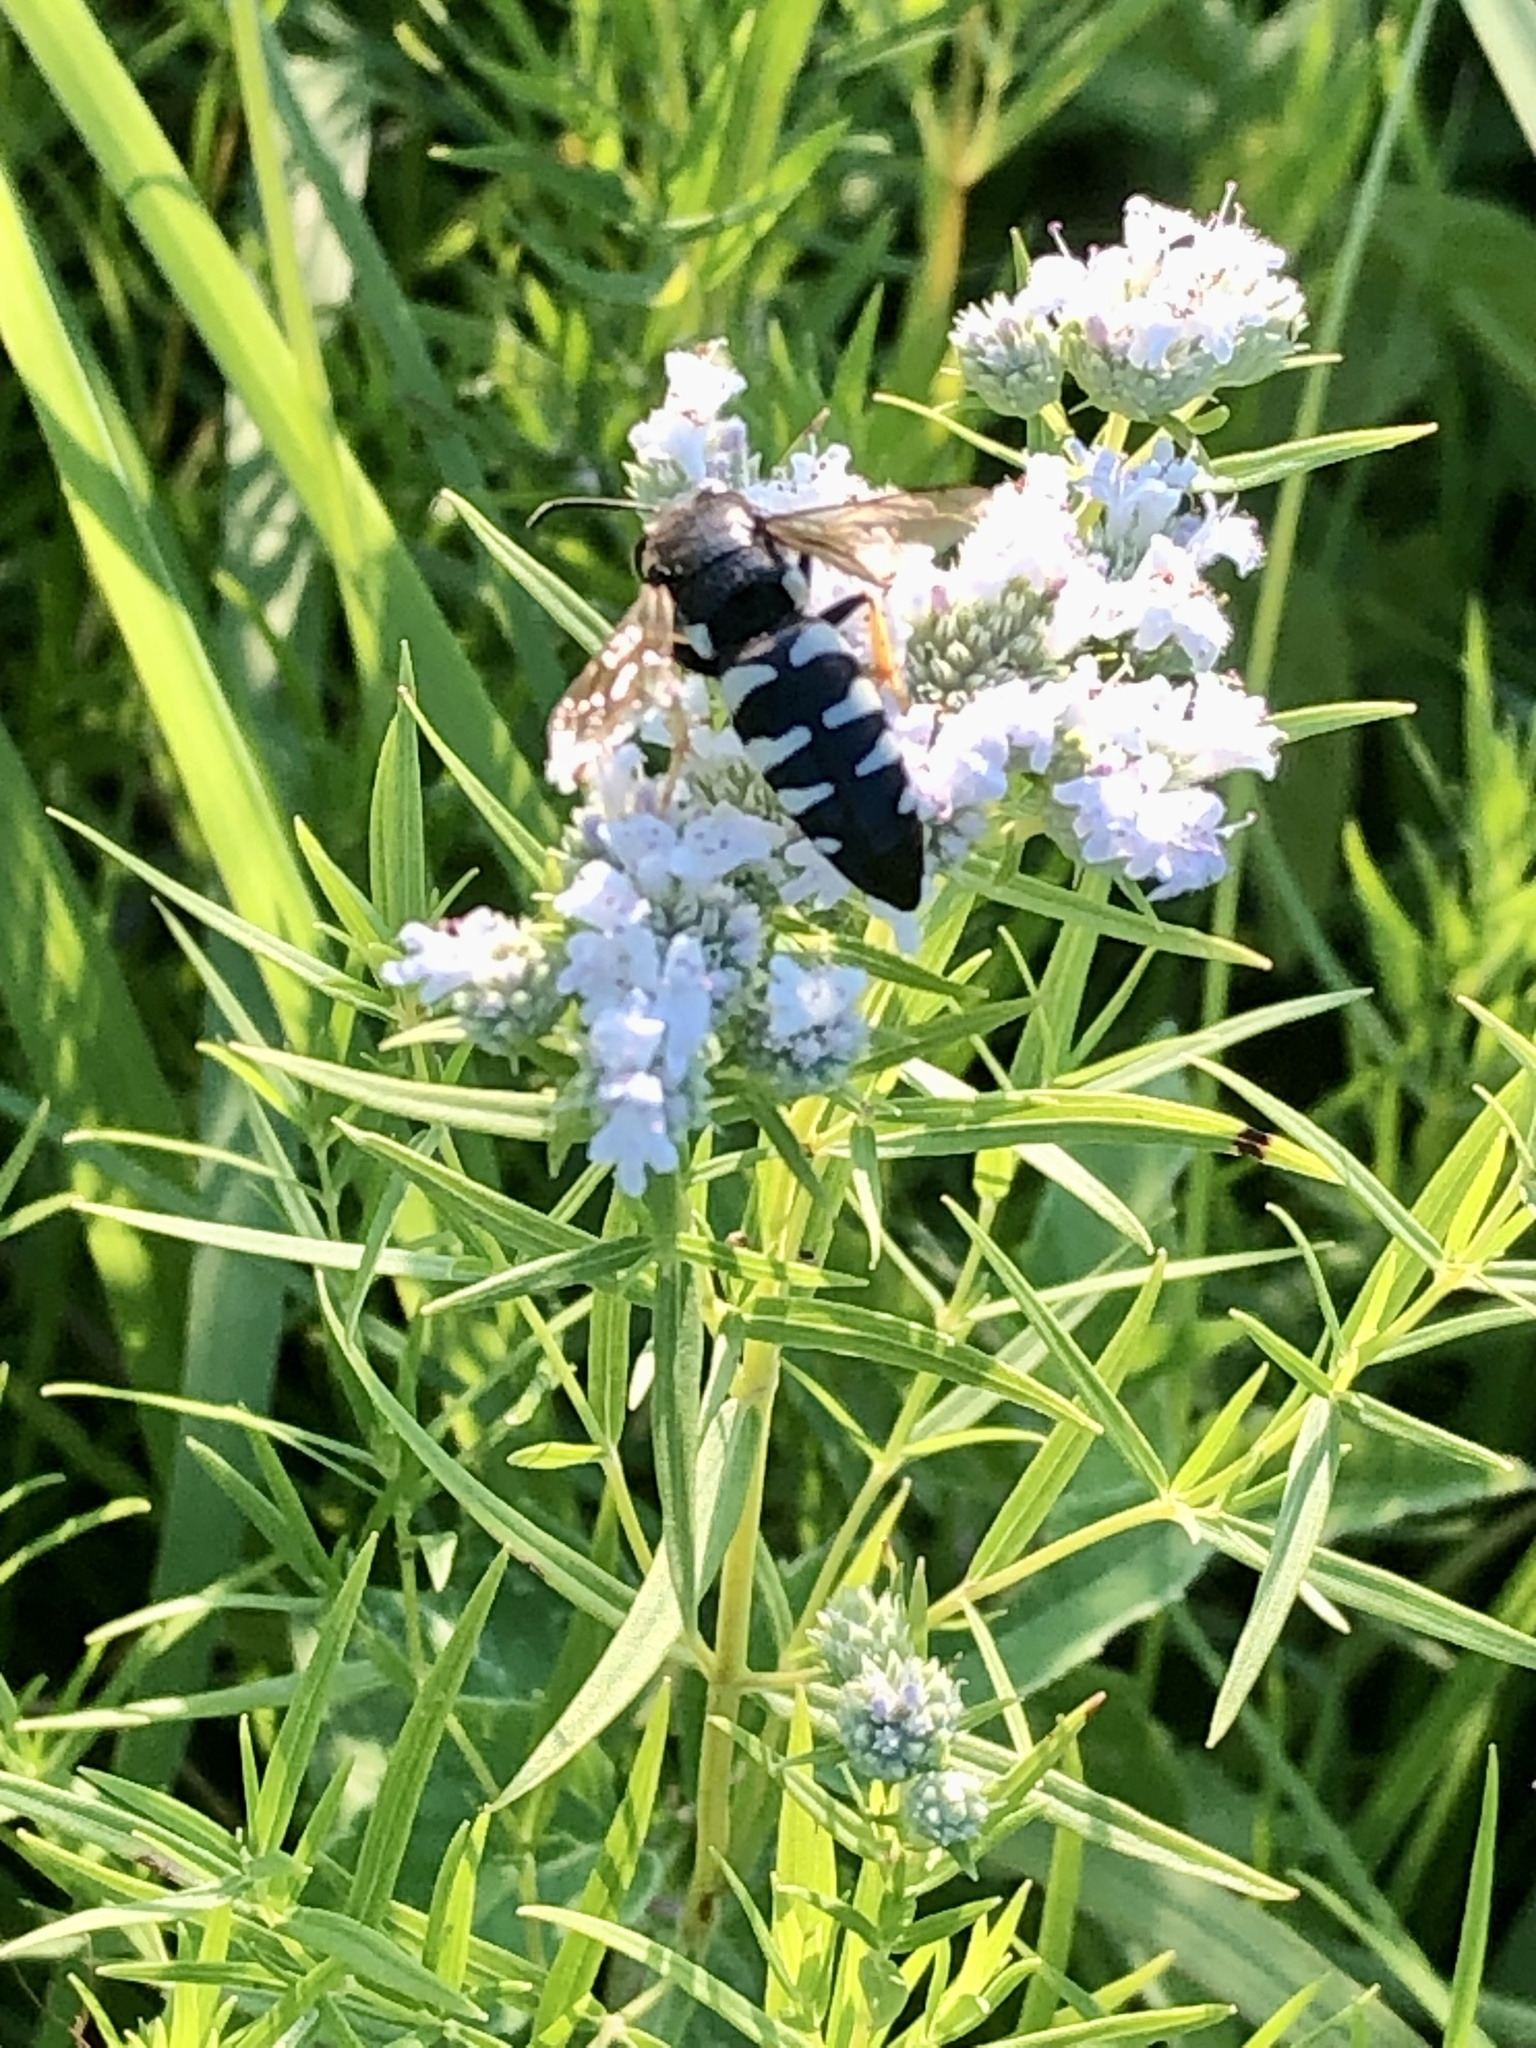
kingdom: Animalia
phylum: Arthropoda
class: Insecta
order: Hymenoptera
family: Crabronidae
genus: Bicyrtes
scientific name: Bicyrtes quadrifasciatus
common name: Four-banded stink bug hunter wasp
